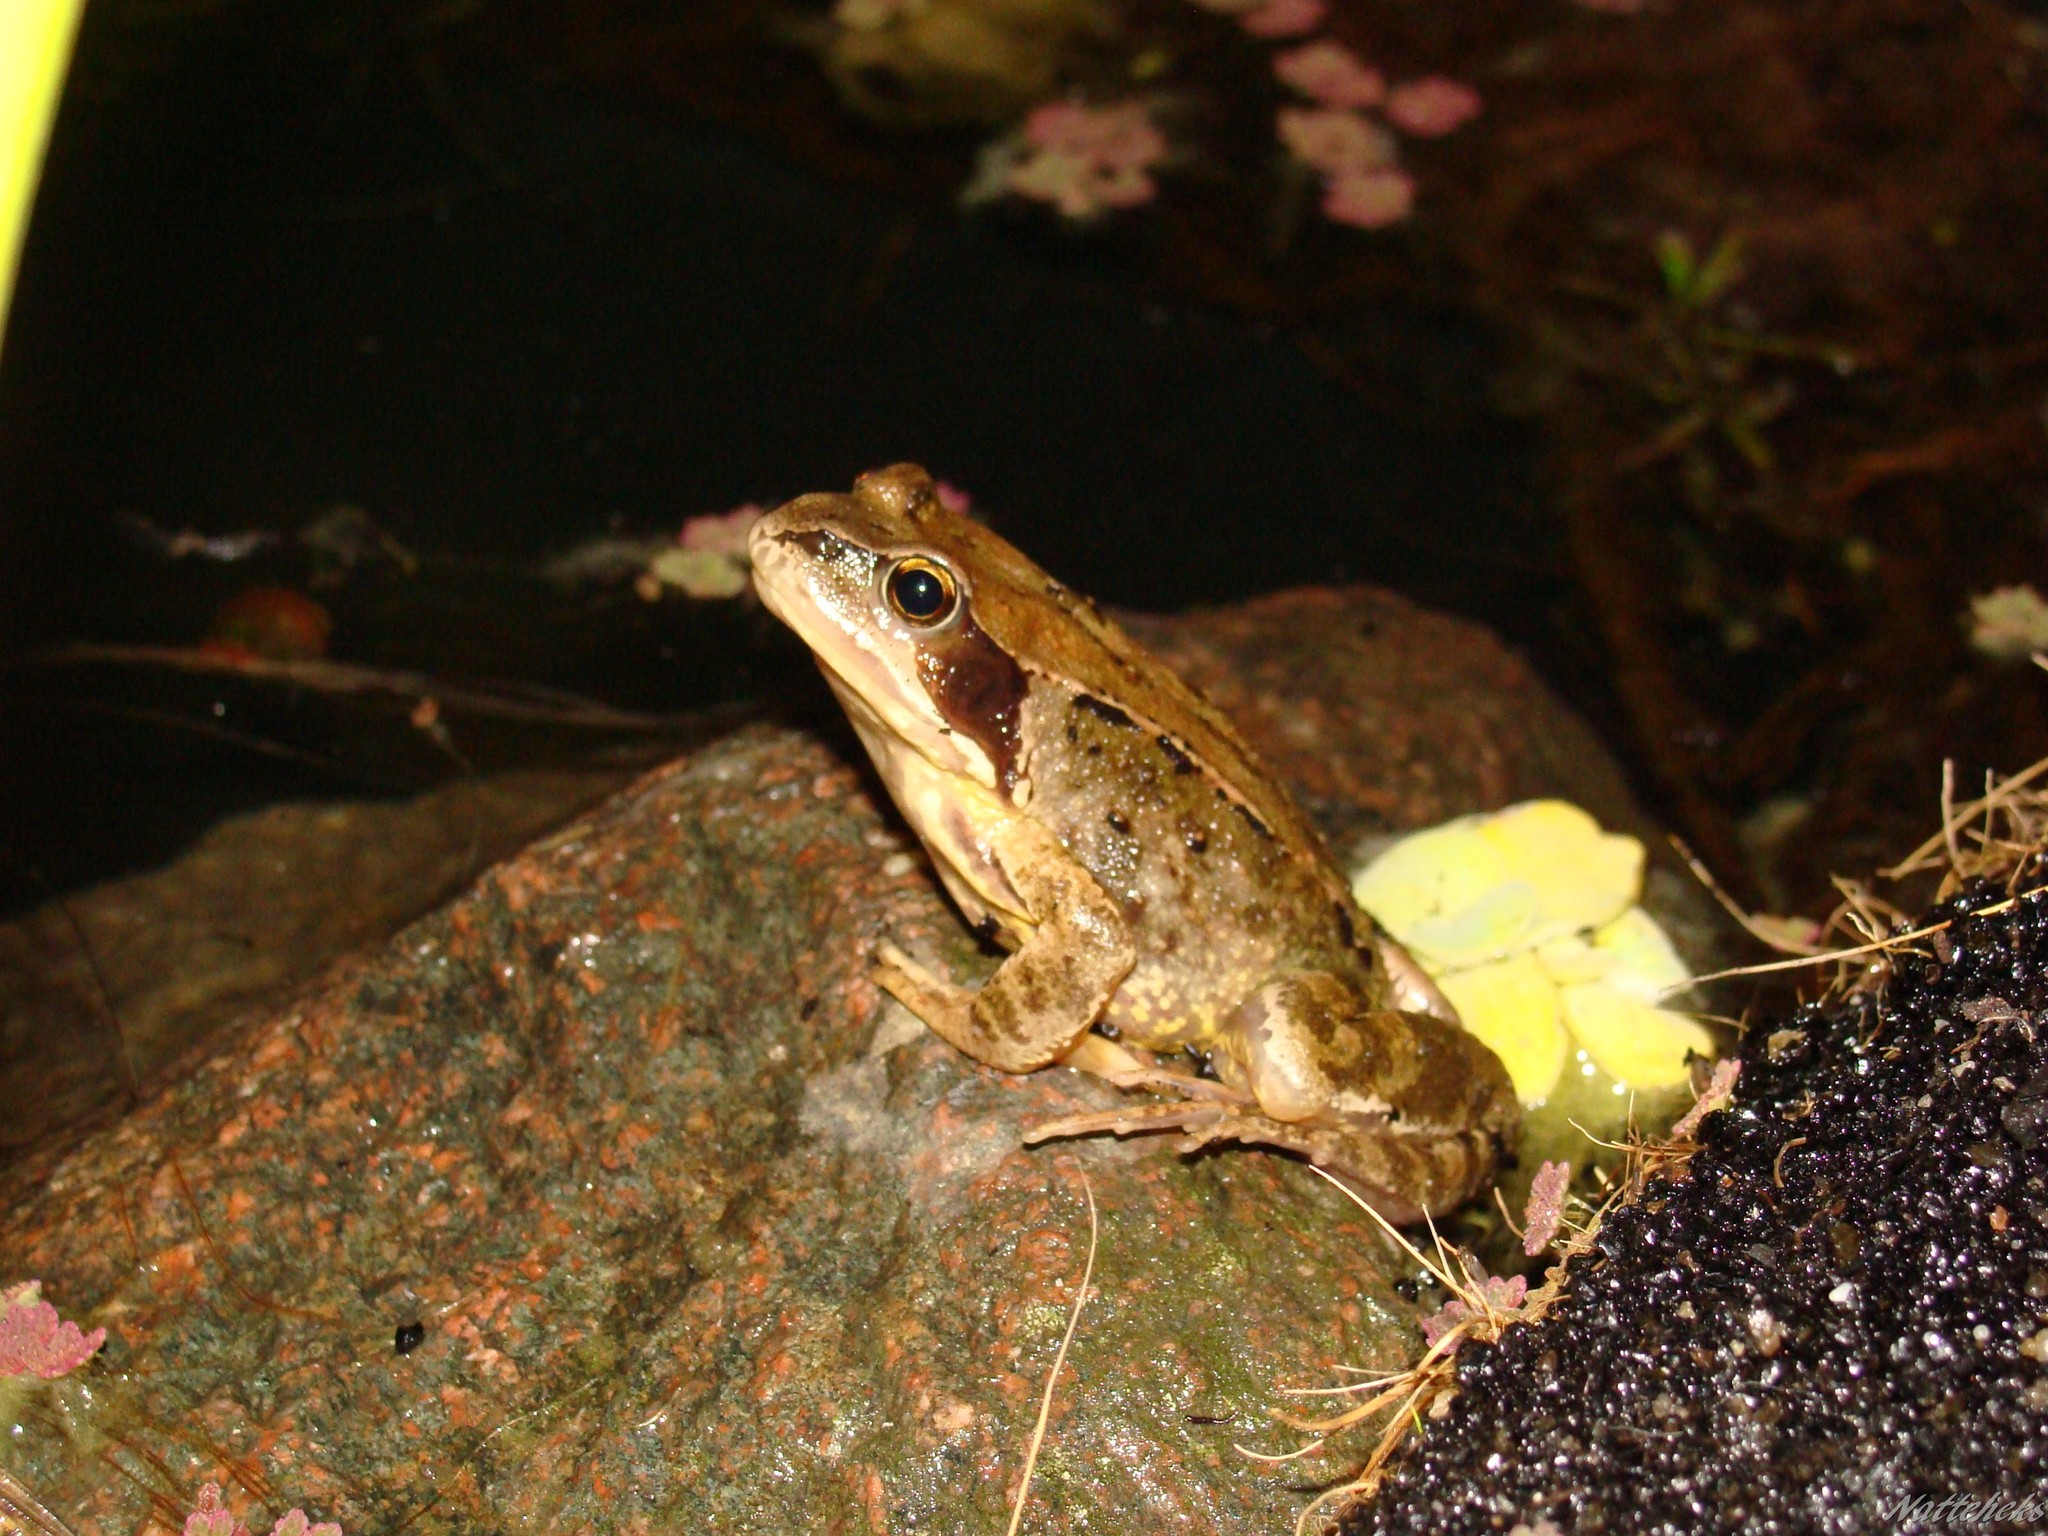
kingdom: Animalia
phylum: Chordata
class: Amphibia
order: Anura
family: Ranidae
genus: Rana
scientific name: Rana temporaria
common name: Common frog
